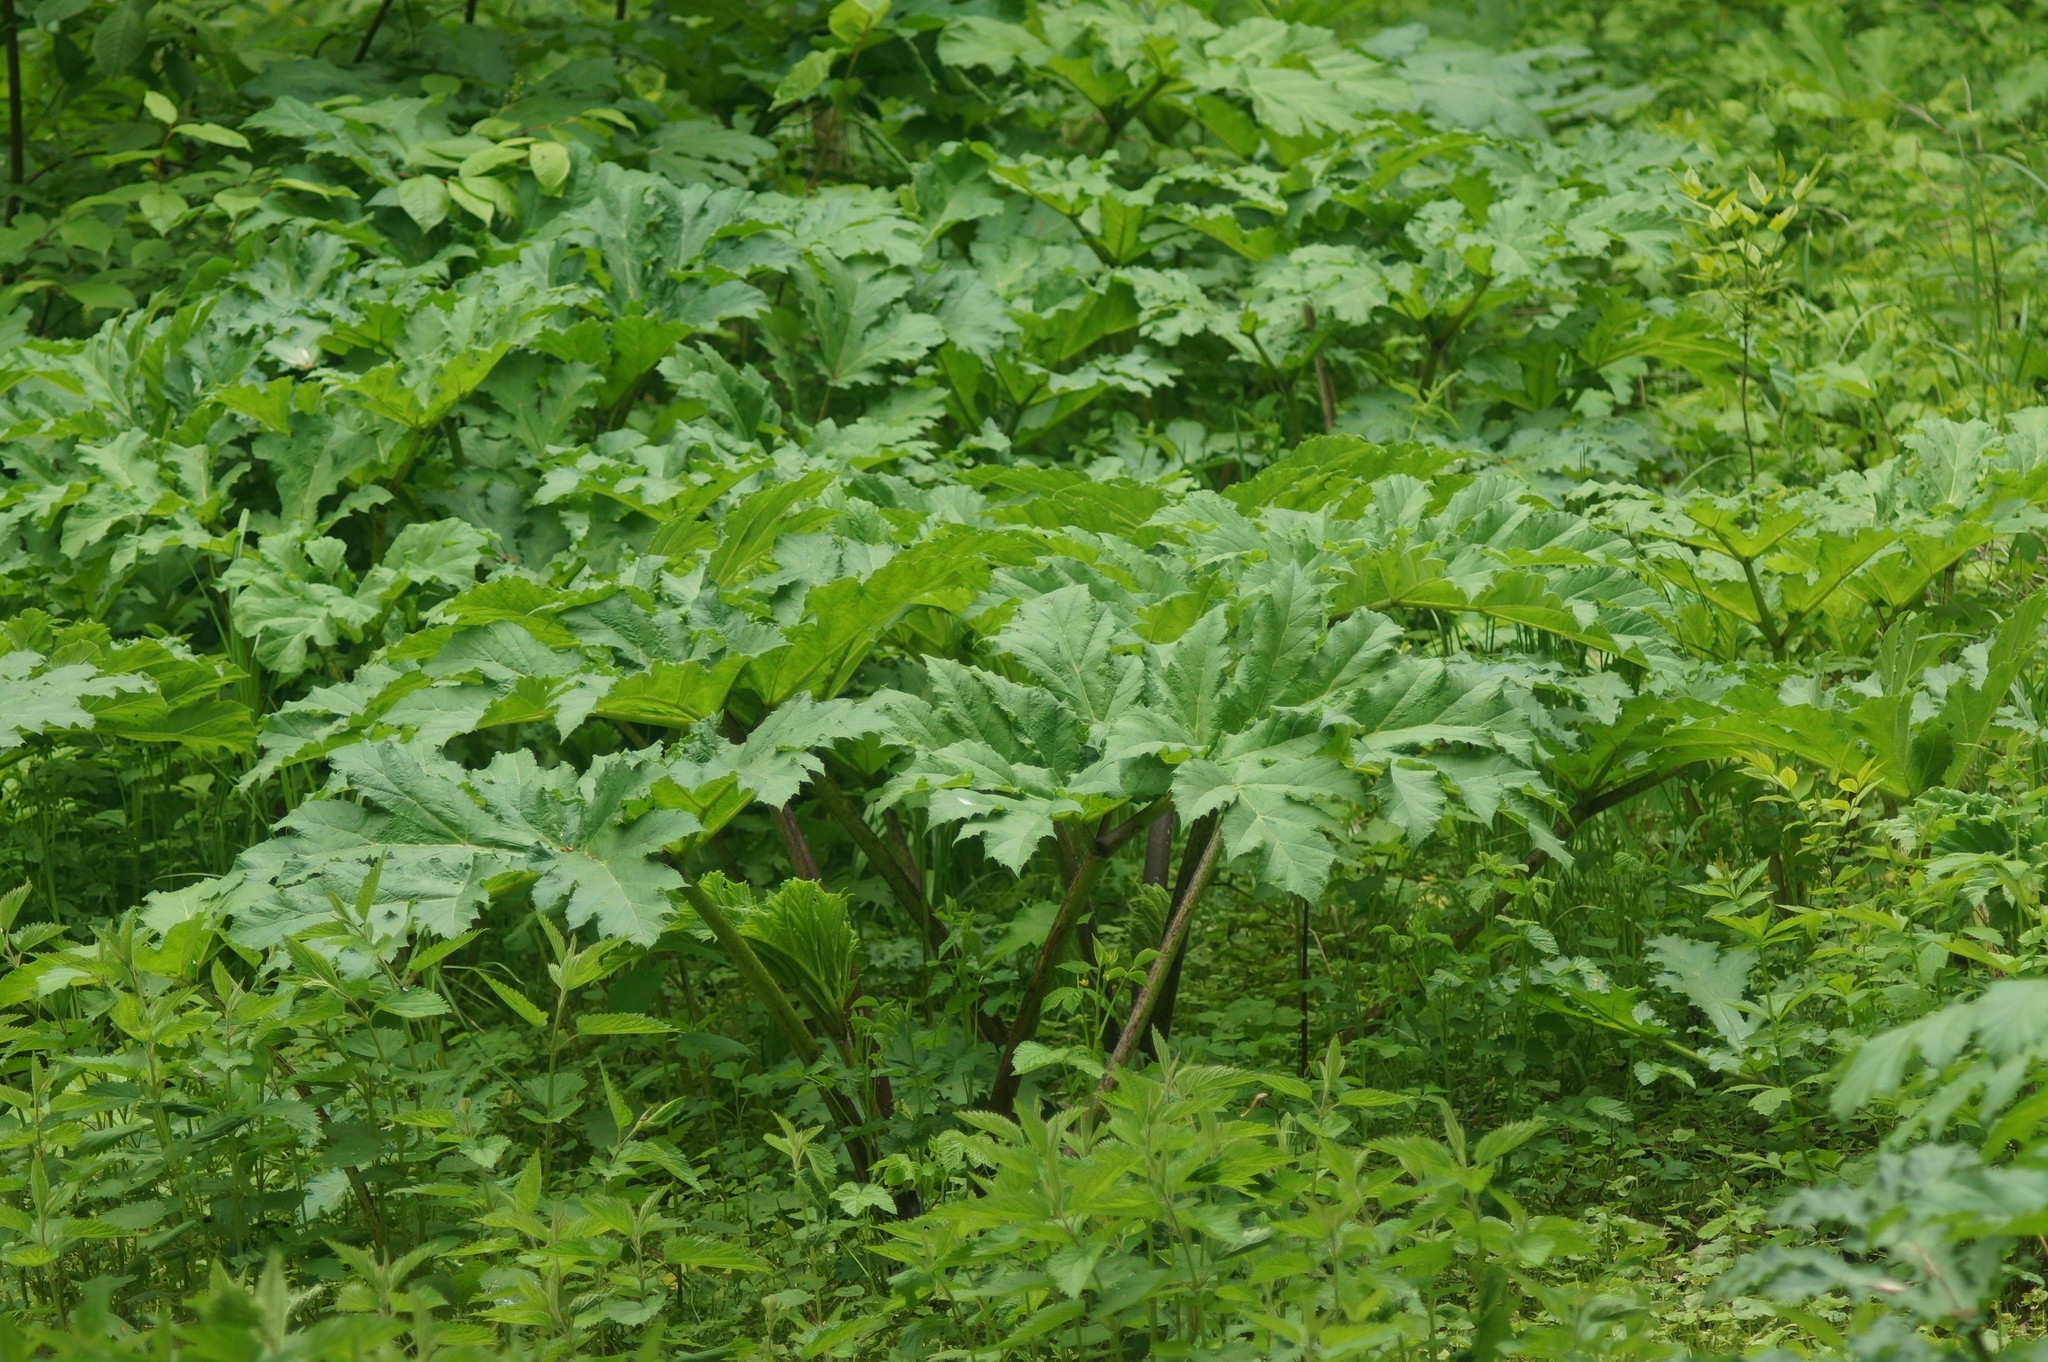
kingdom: Plantae
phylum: Tracheophyta
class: Magnoliopsida
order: Apiales
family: Apiaceae
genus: Heracleum
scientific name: Heracleum sosnowskyi
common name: Sosnowsky's hogweed
